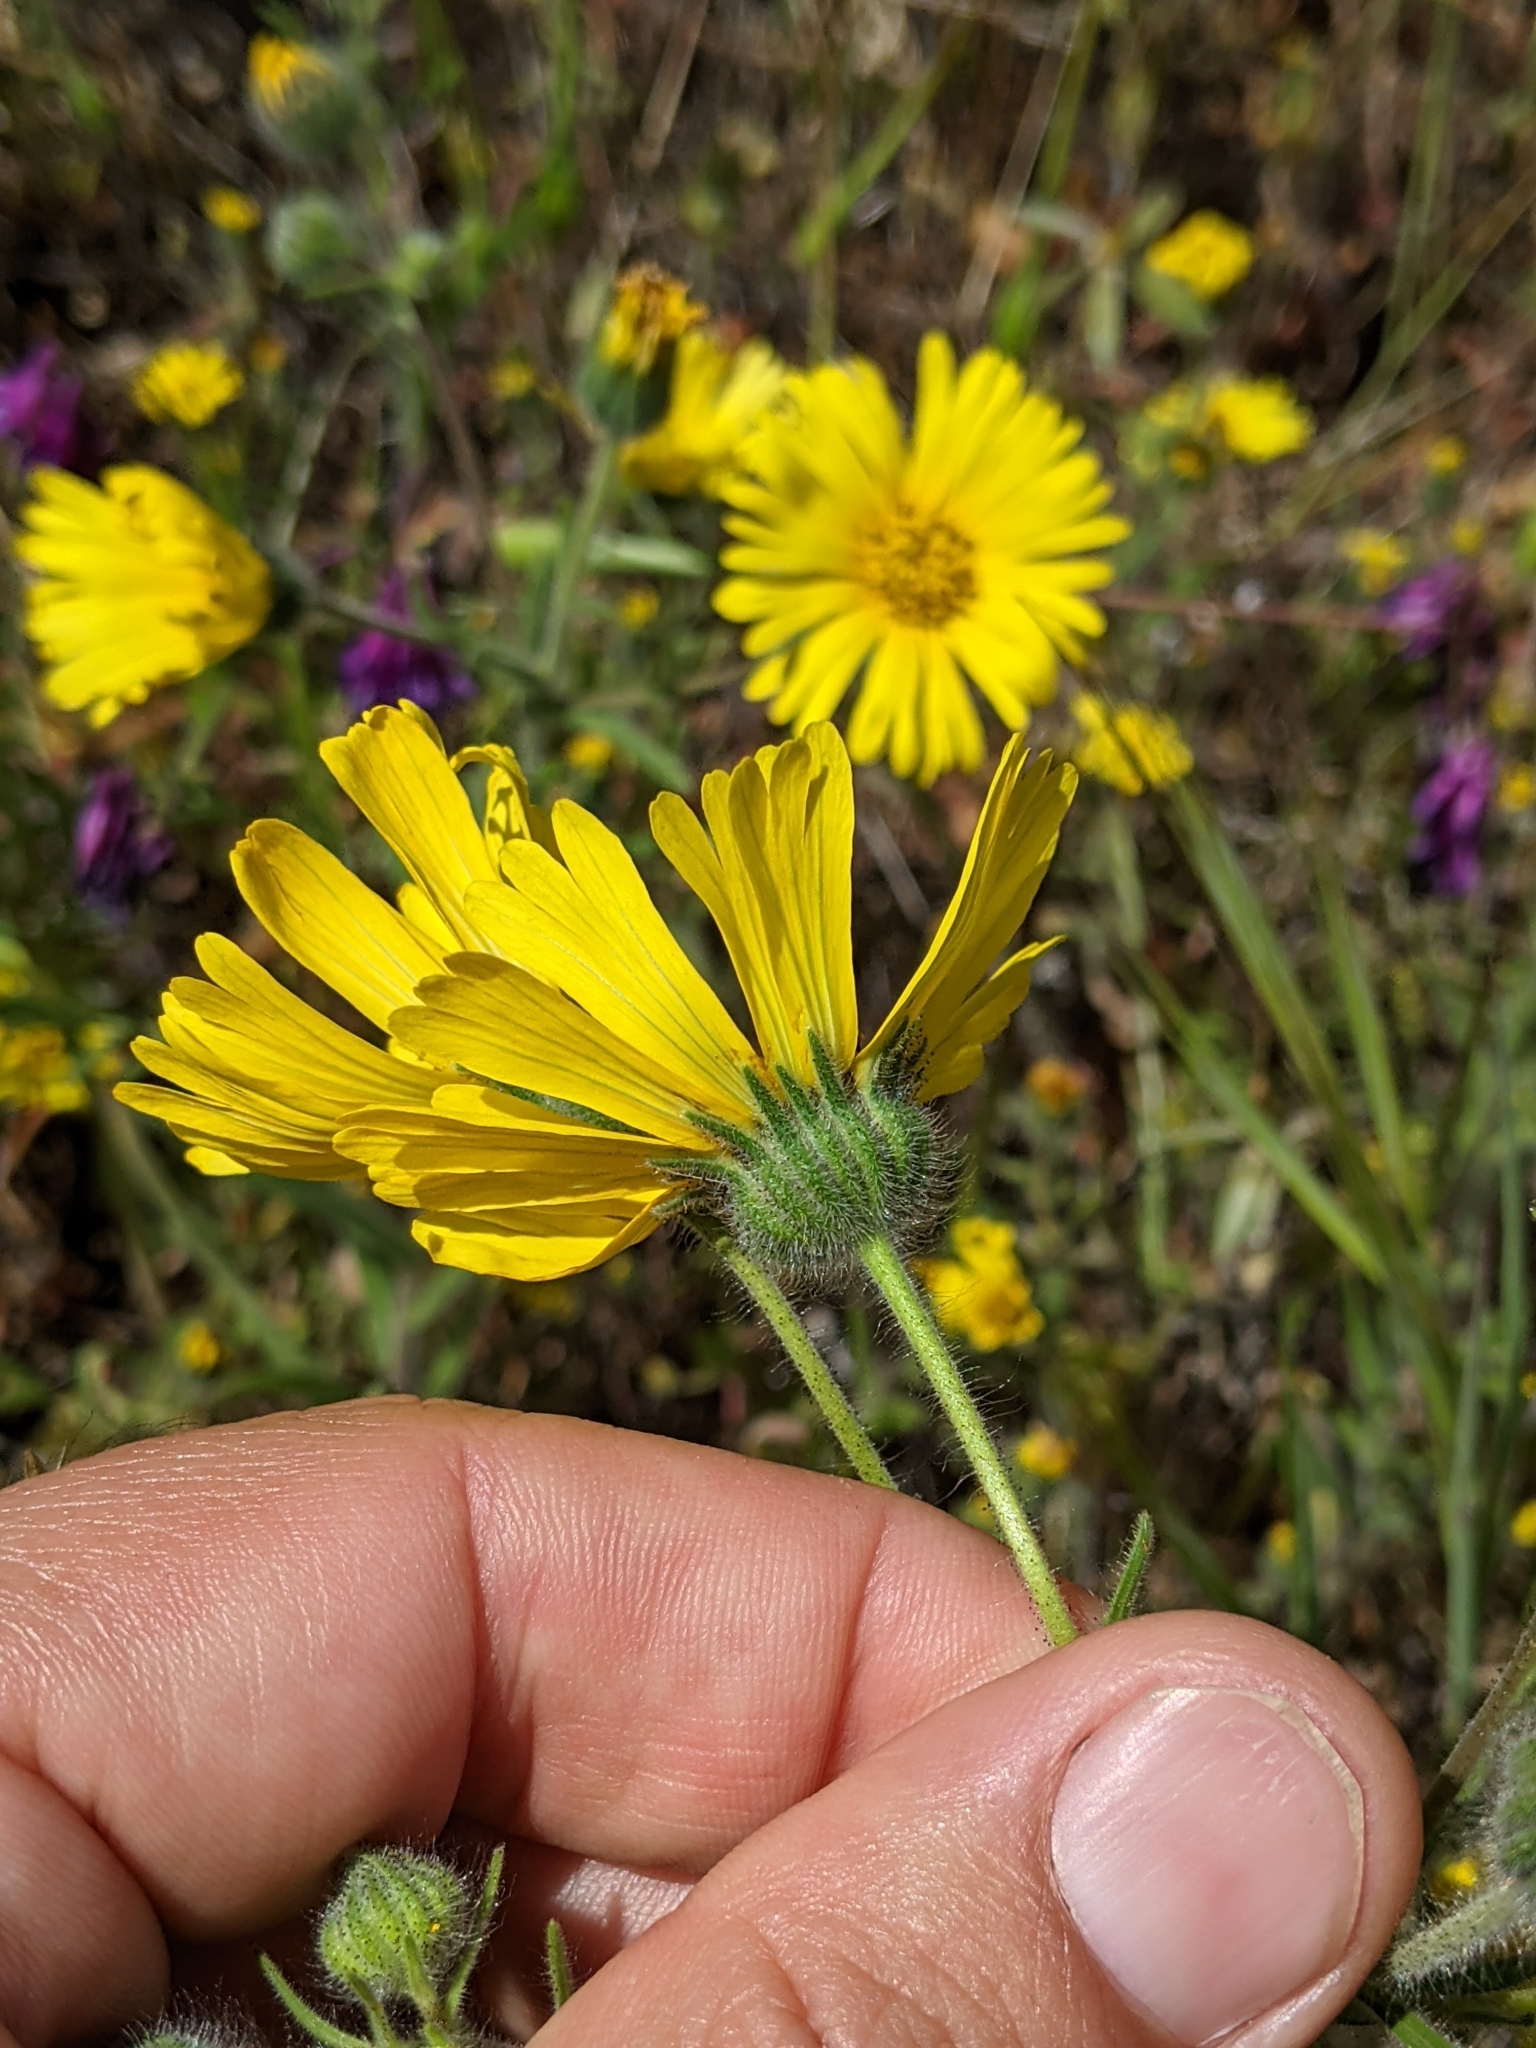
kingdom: Plantae
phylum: Tracheophyta
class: Magnoliopsida
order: Asterales
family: Asteraceae
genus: Madia
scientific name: Madia elegans
